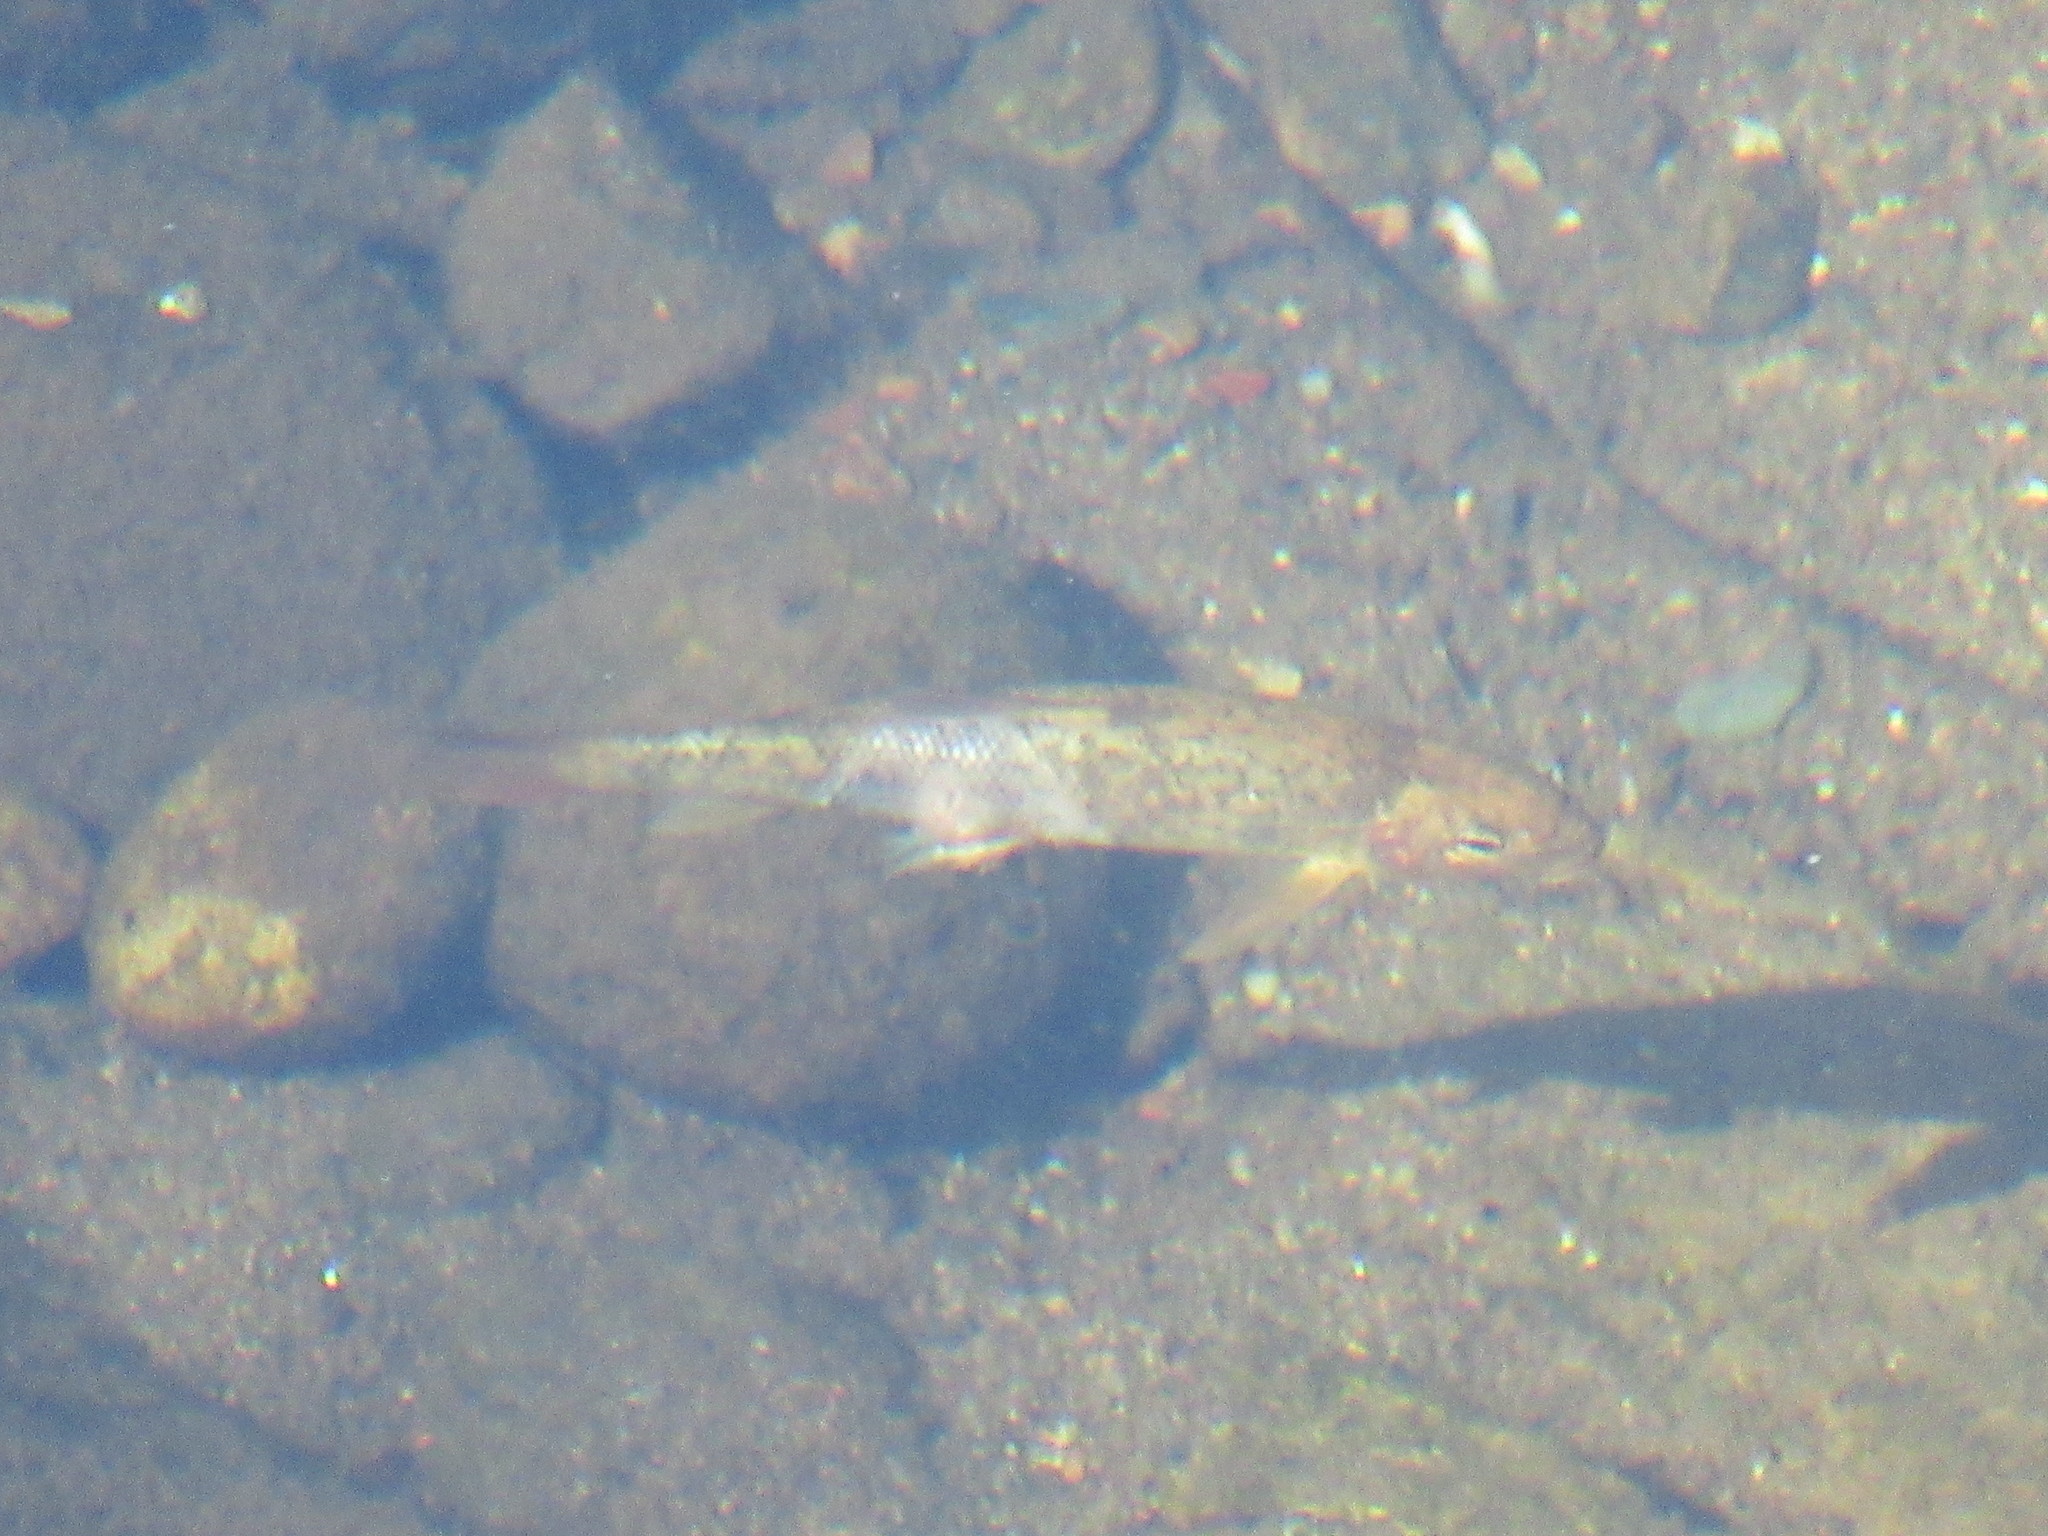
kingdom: Animalia
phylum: Chordata
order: Cypriniformes
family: Catostomidae
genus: Catostomus
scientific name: Catostomus occidentalis
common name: Goose lake sucker
